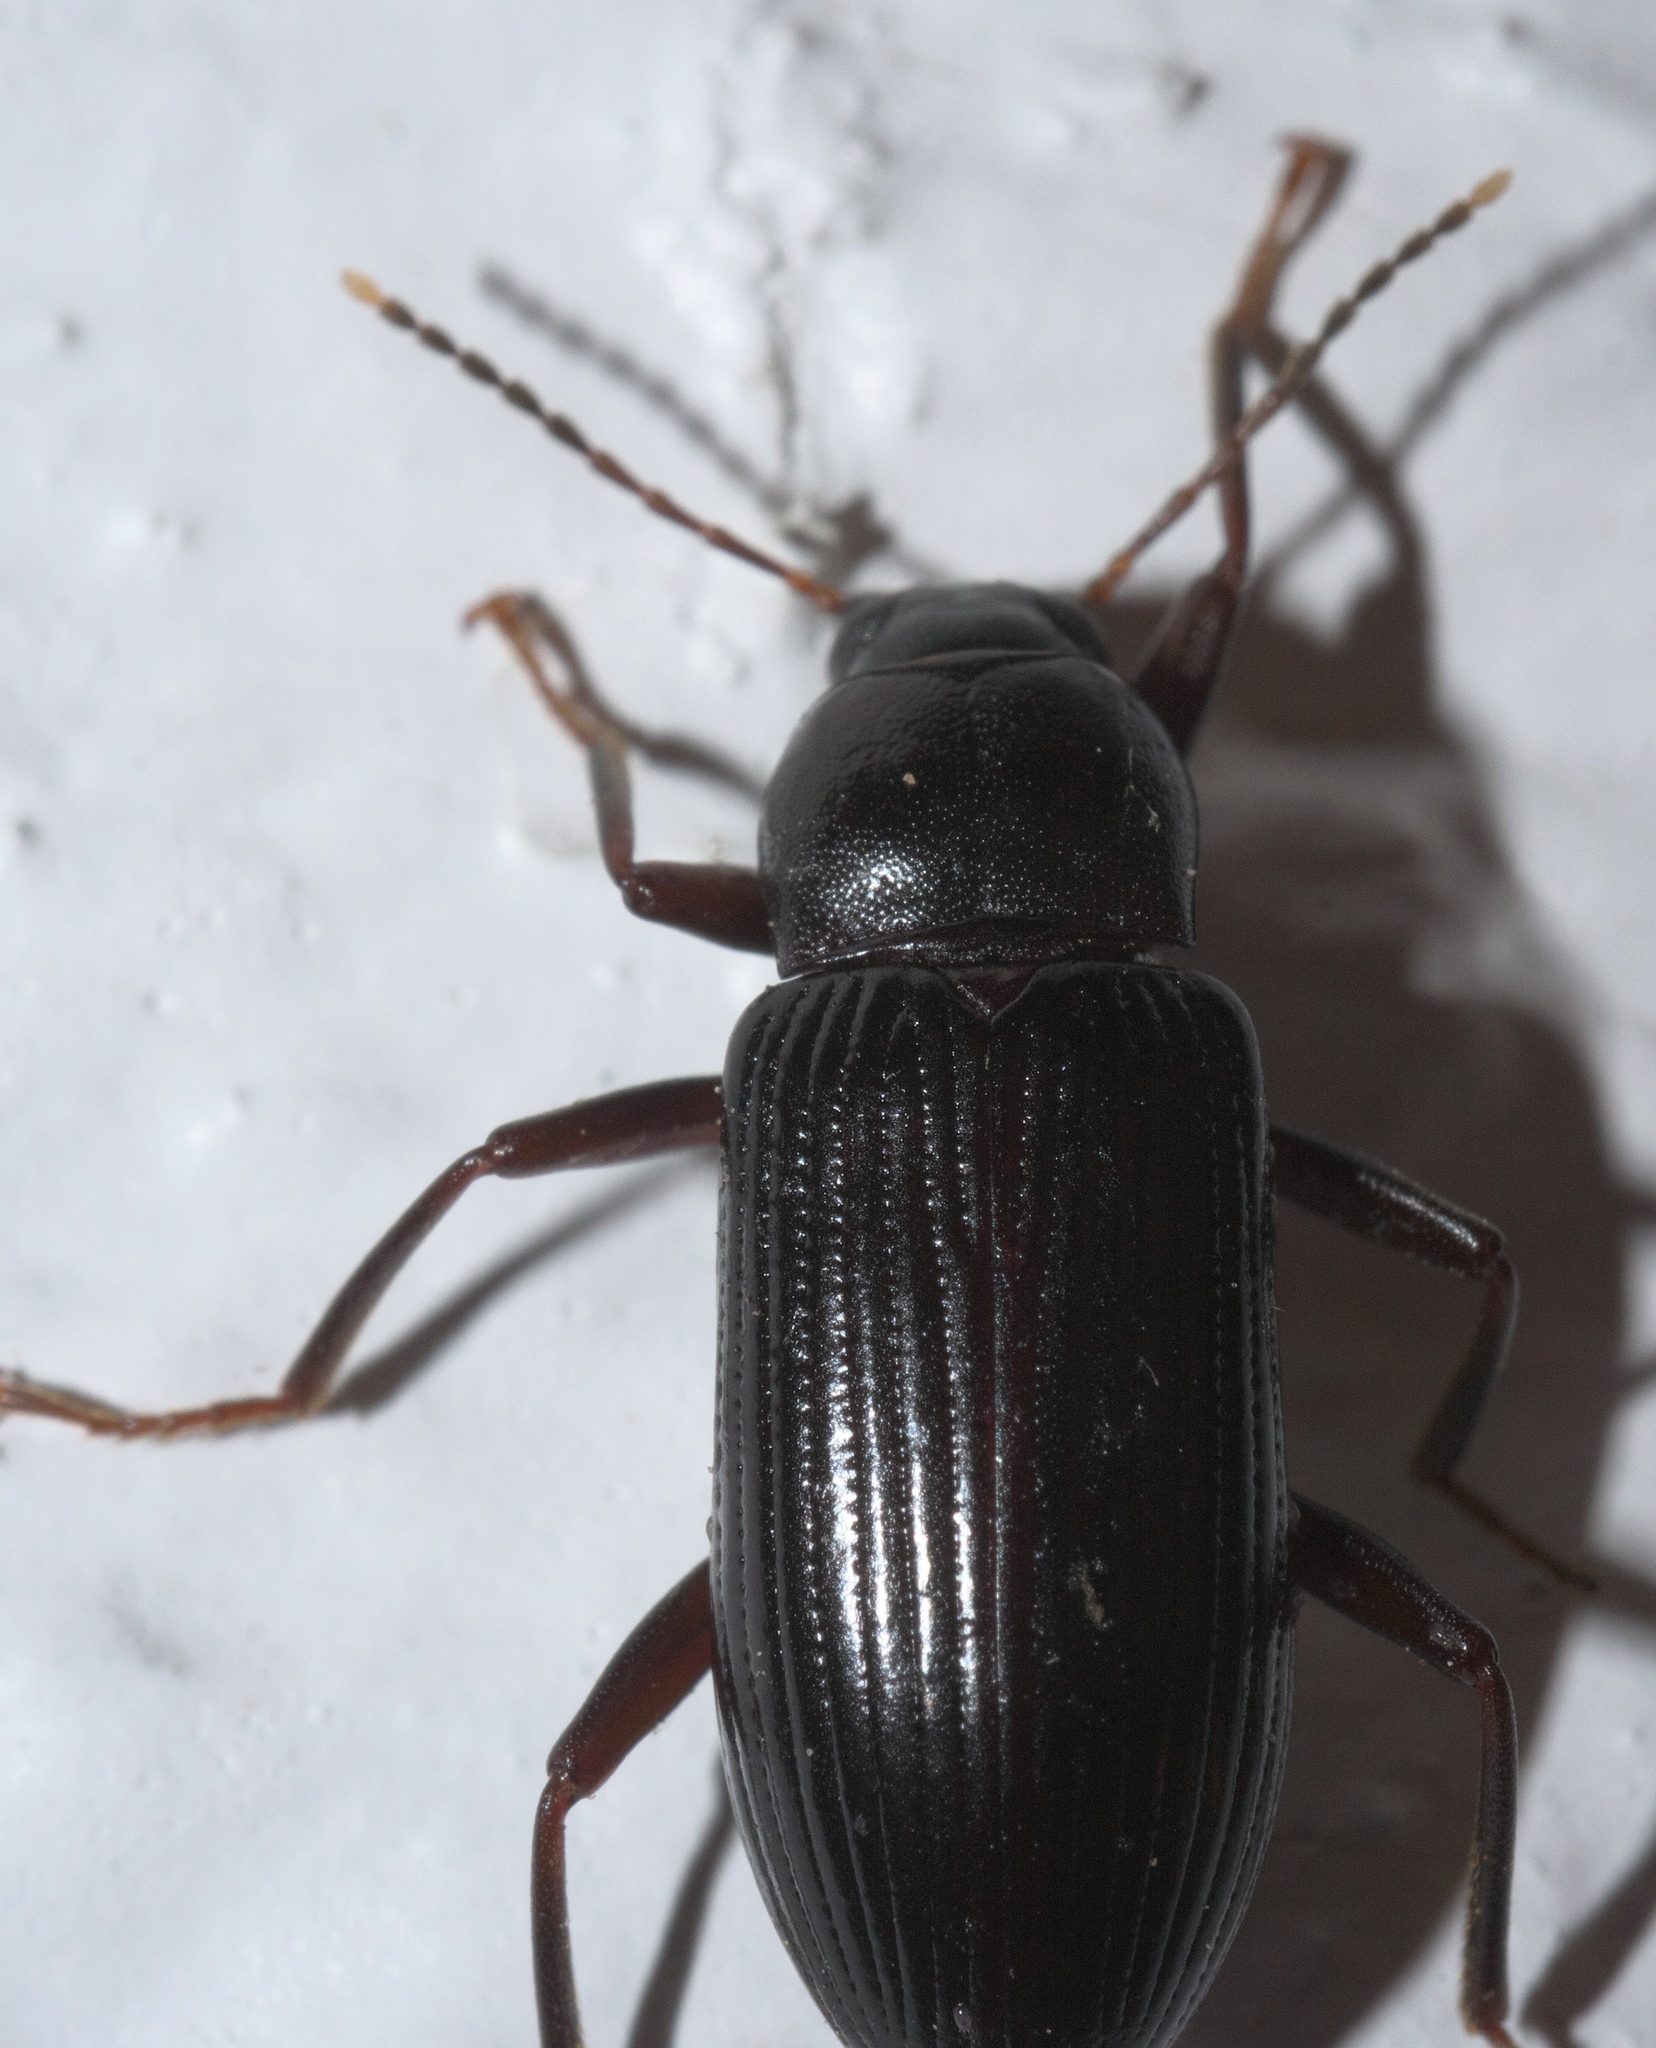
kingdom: Animalia
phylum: Arthropoda
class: Insecta
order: Coleoptera
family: Tenebrionidae
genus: Strongylium
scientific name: Strongylium terminatum
